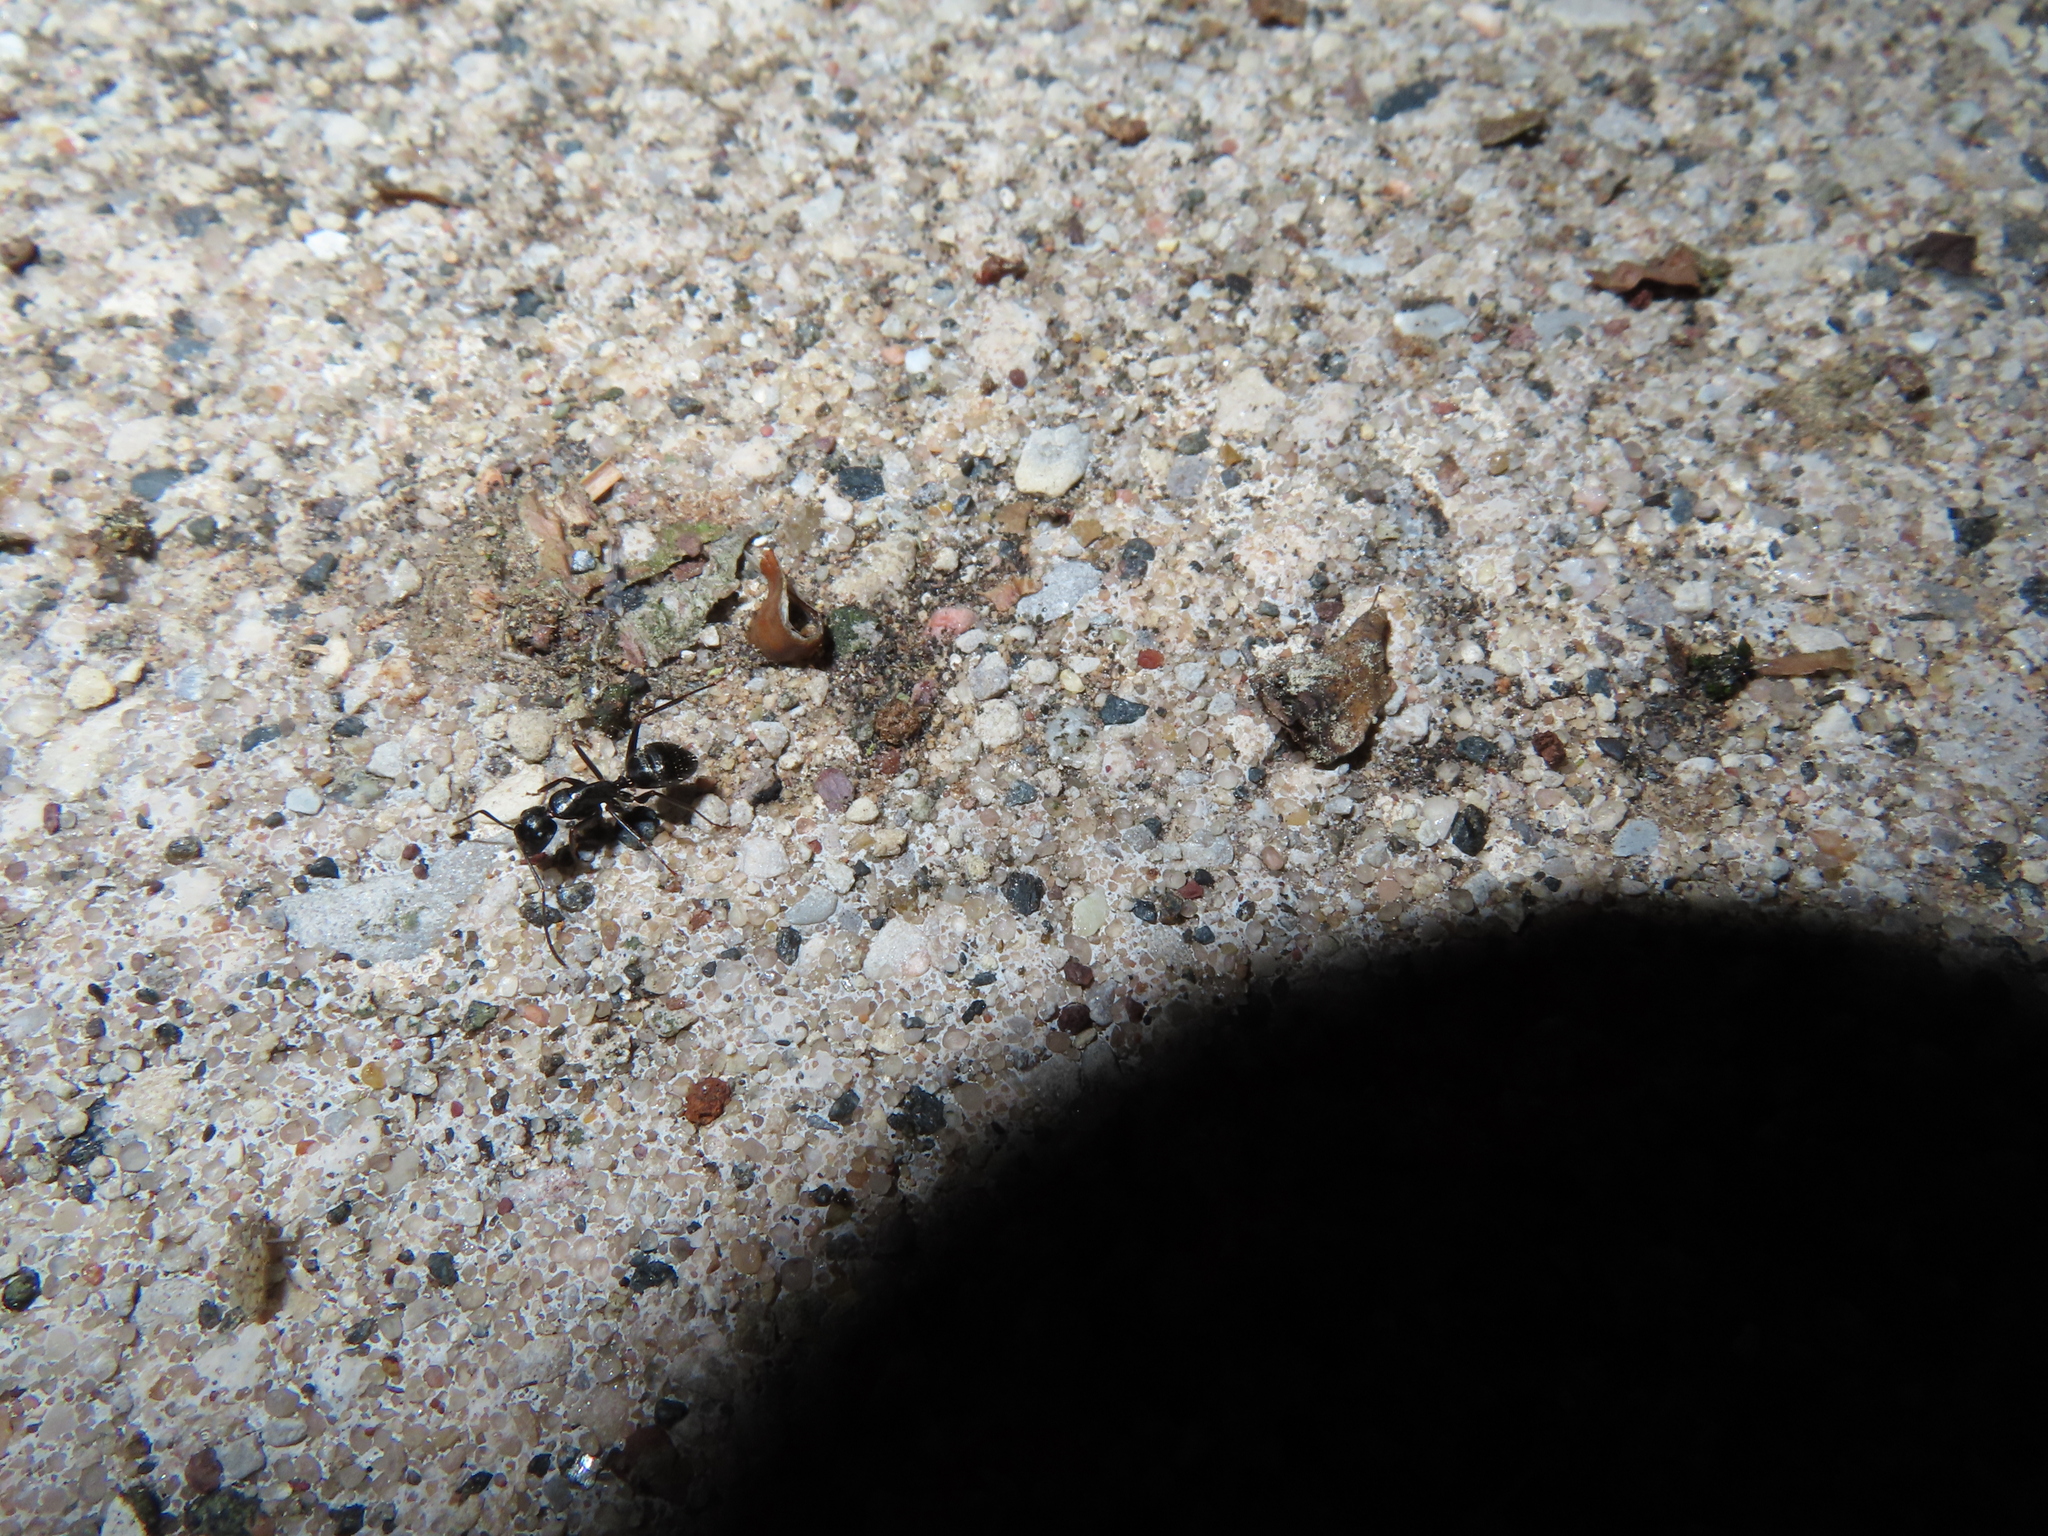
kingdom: Animalia
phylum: Arthropoda
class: Insecta
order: Hymenoptera
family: Formicidae
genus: Camponotus
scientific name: Camponotus pennsylvanicus
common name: Black carpenter ant
